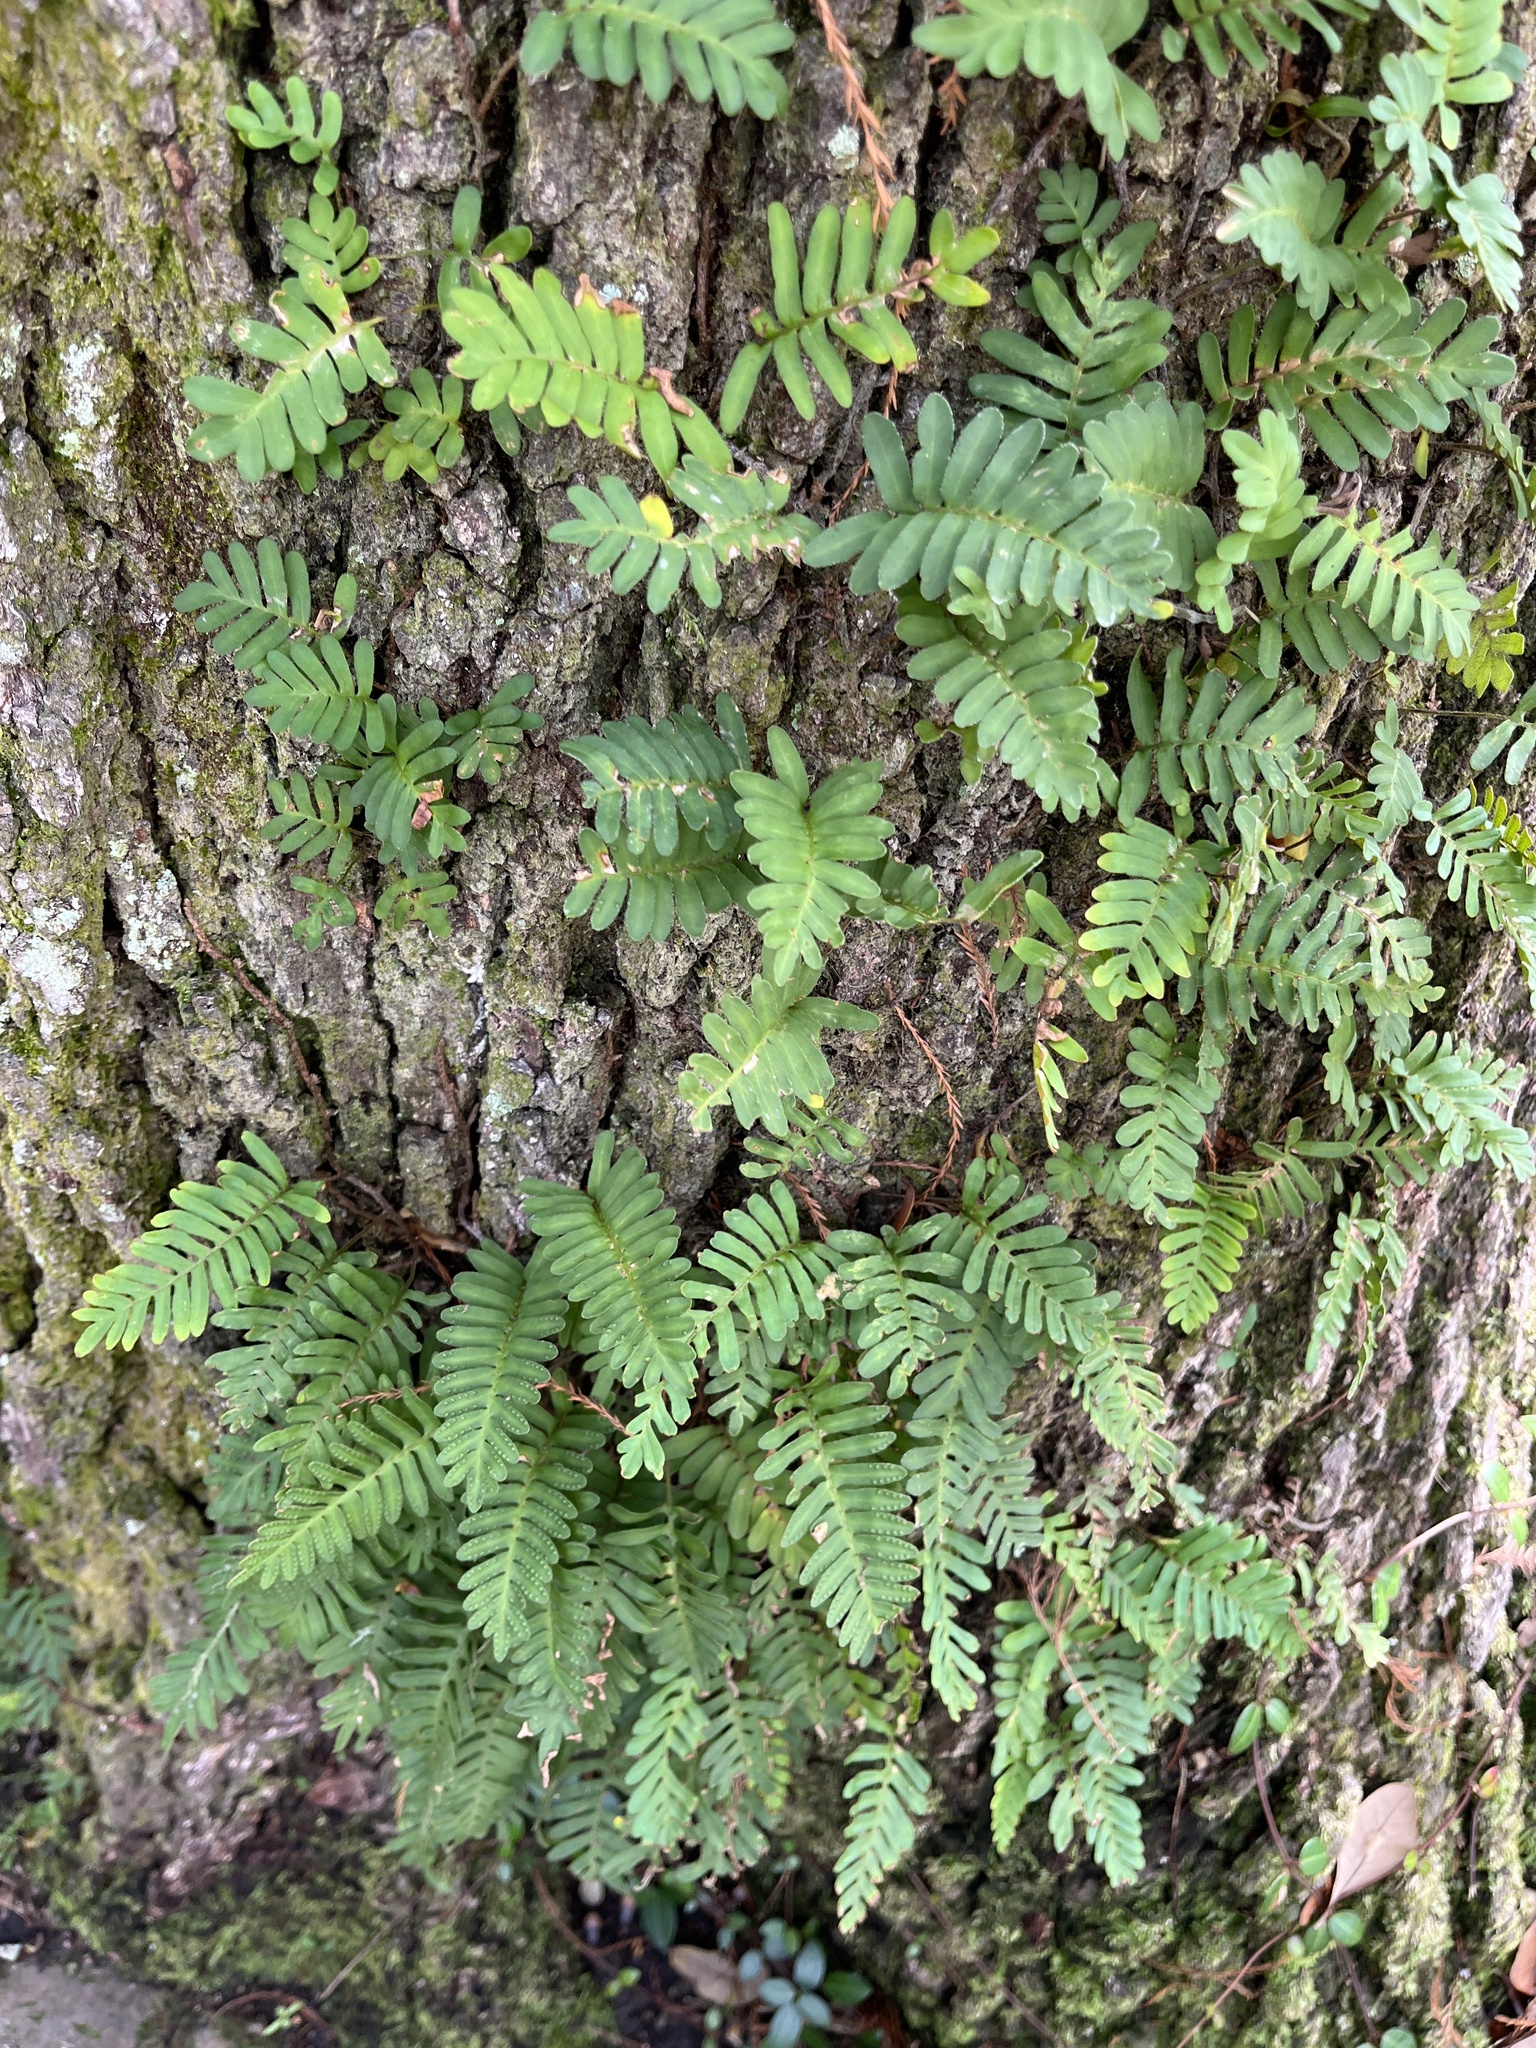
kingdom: Plantae
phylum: Tracheophyta
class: Polypodiopsida
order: Polypodiales
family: Polypodiaceae
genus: Pleopeltis
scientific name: Pleopeltis michauxiana
